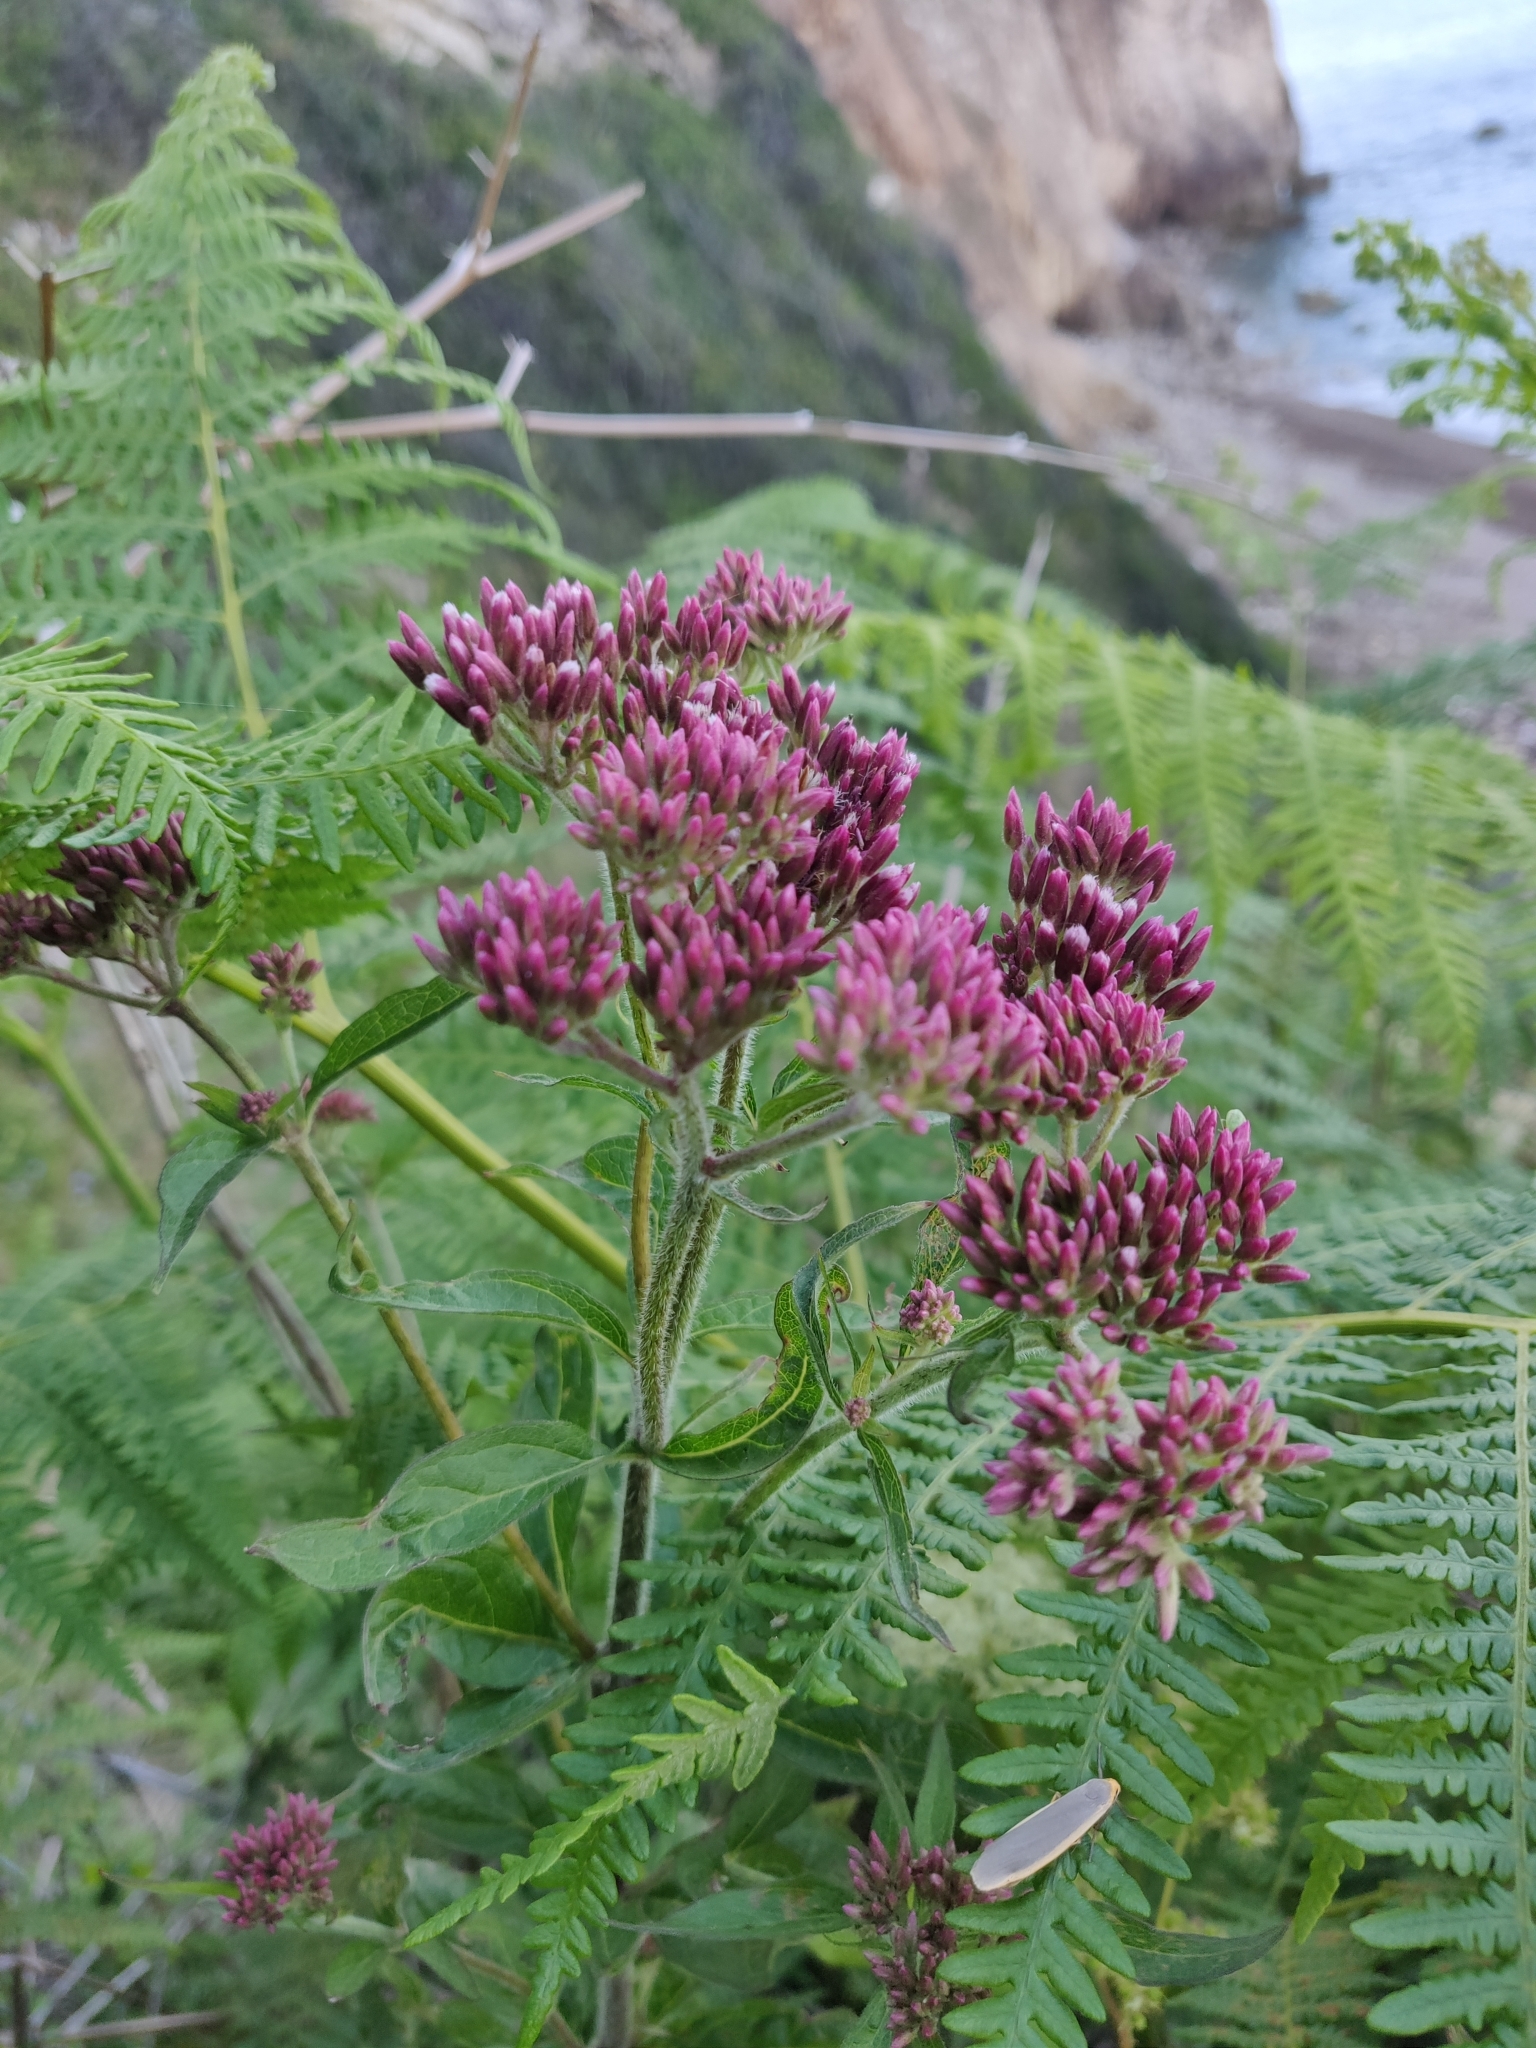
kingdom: Plantae
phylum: Tracheophyta
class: Magnoliopsida
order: Asterales
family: Asteraceae
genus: Eupatorium
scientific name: Eupatorium cannabinum
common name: Hemp-agrimony
